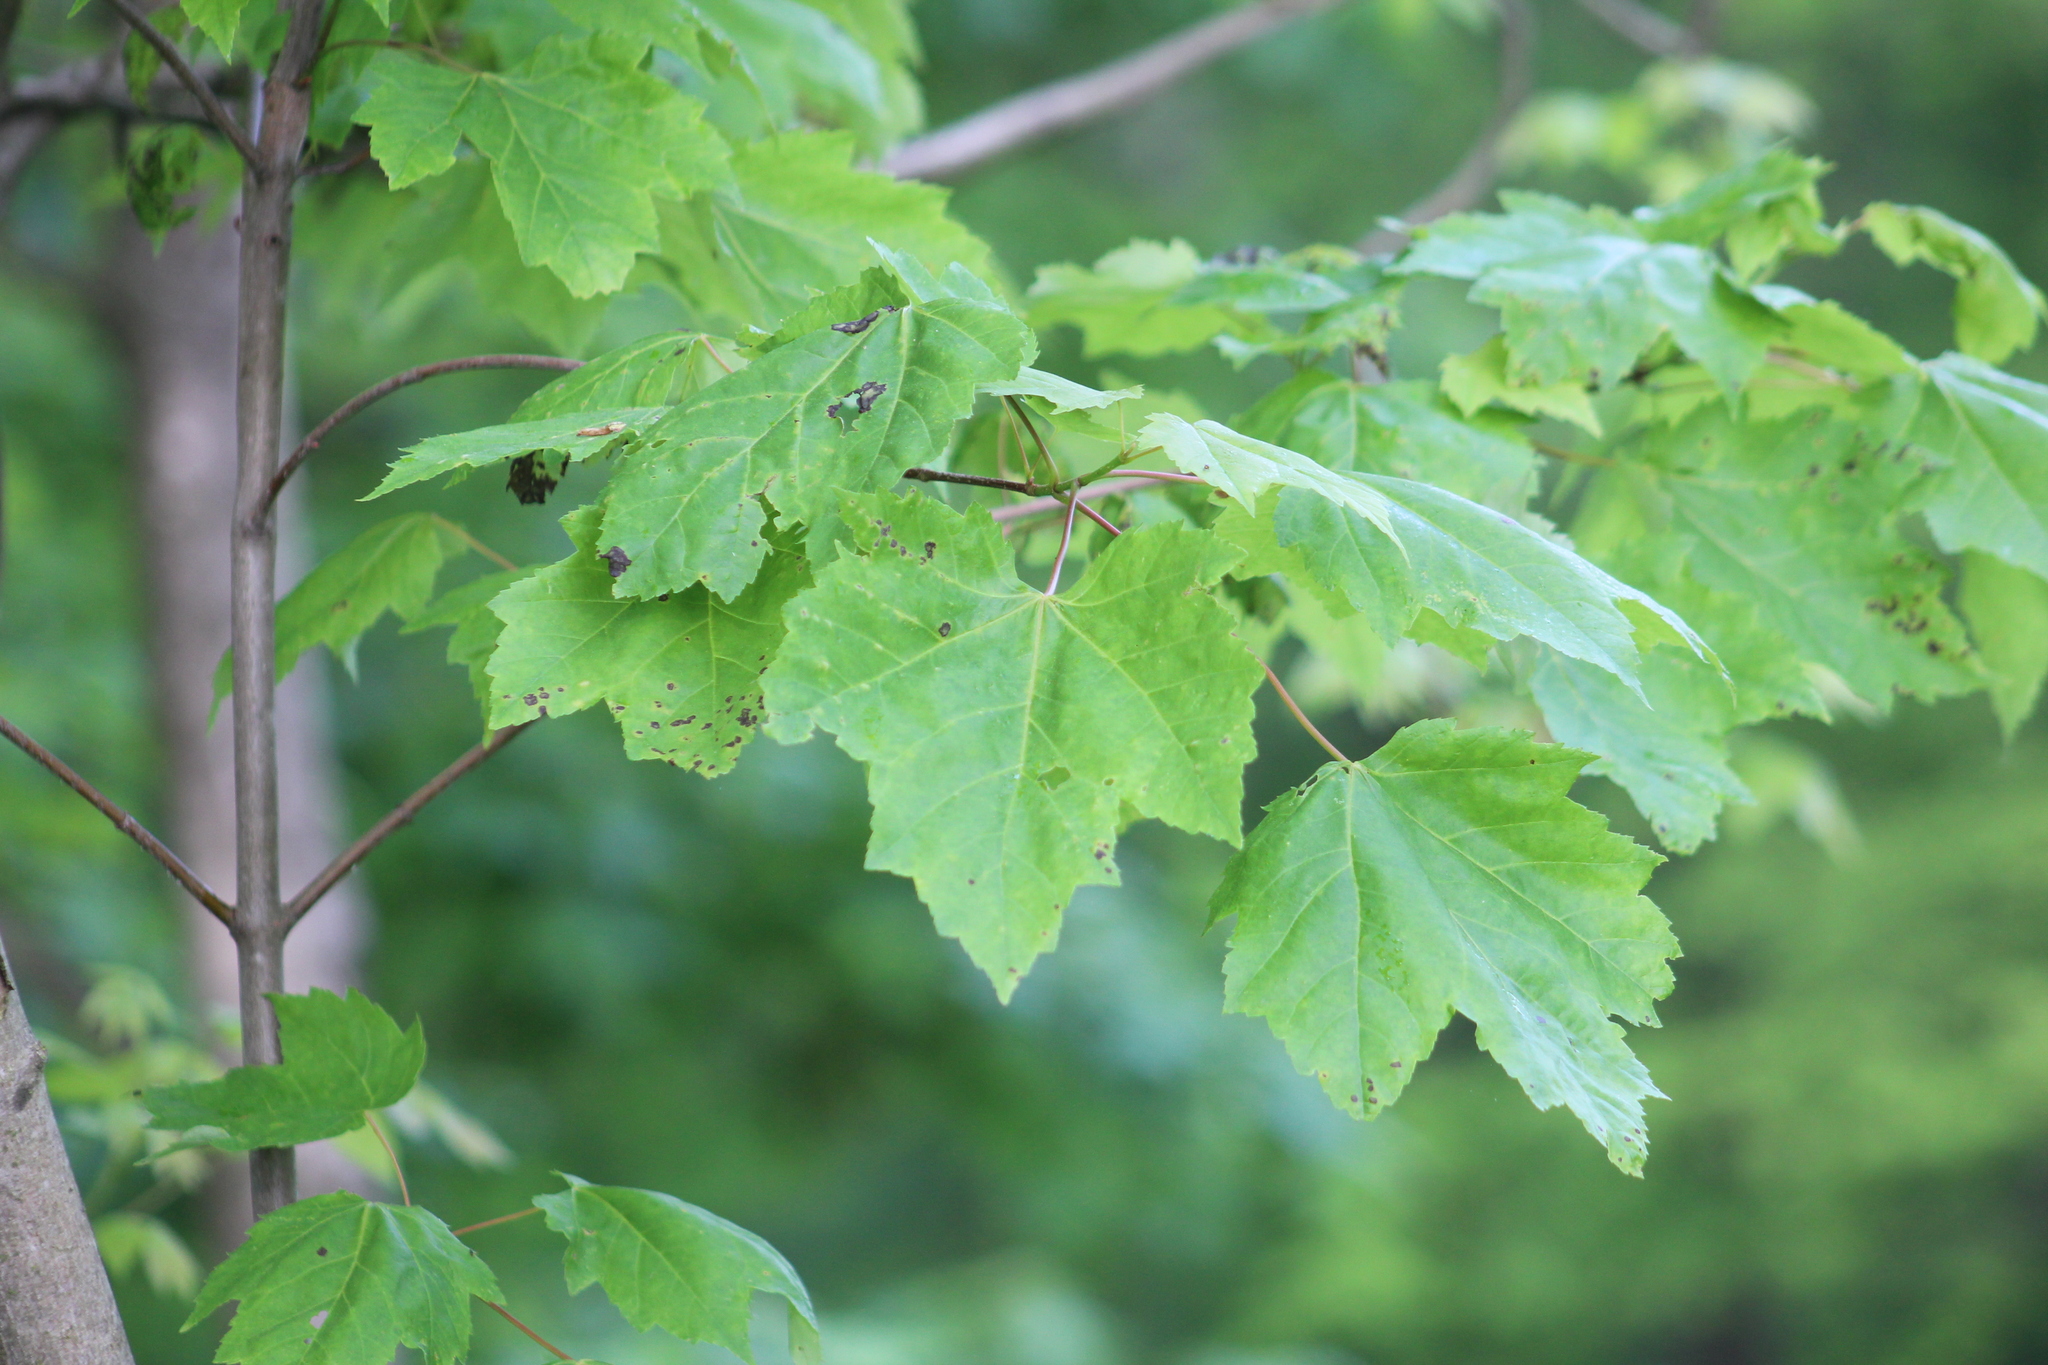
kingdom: Plantae
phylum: Tracheophyta
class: Magnoliopsida
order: Sapindales
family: Sapindaceae
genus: Acer
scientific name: Acer rubrum
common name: Red maple
